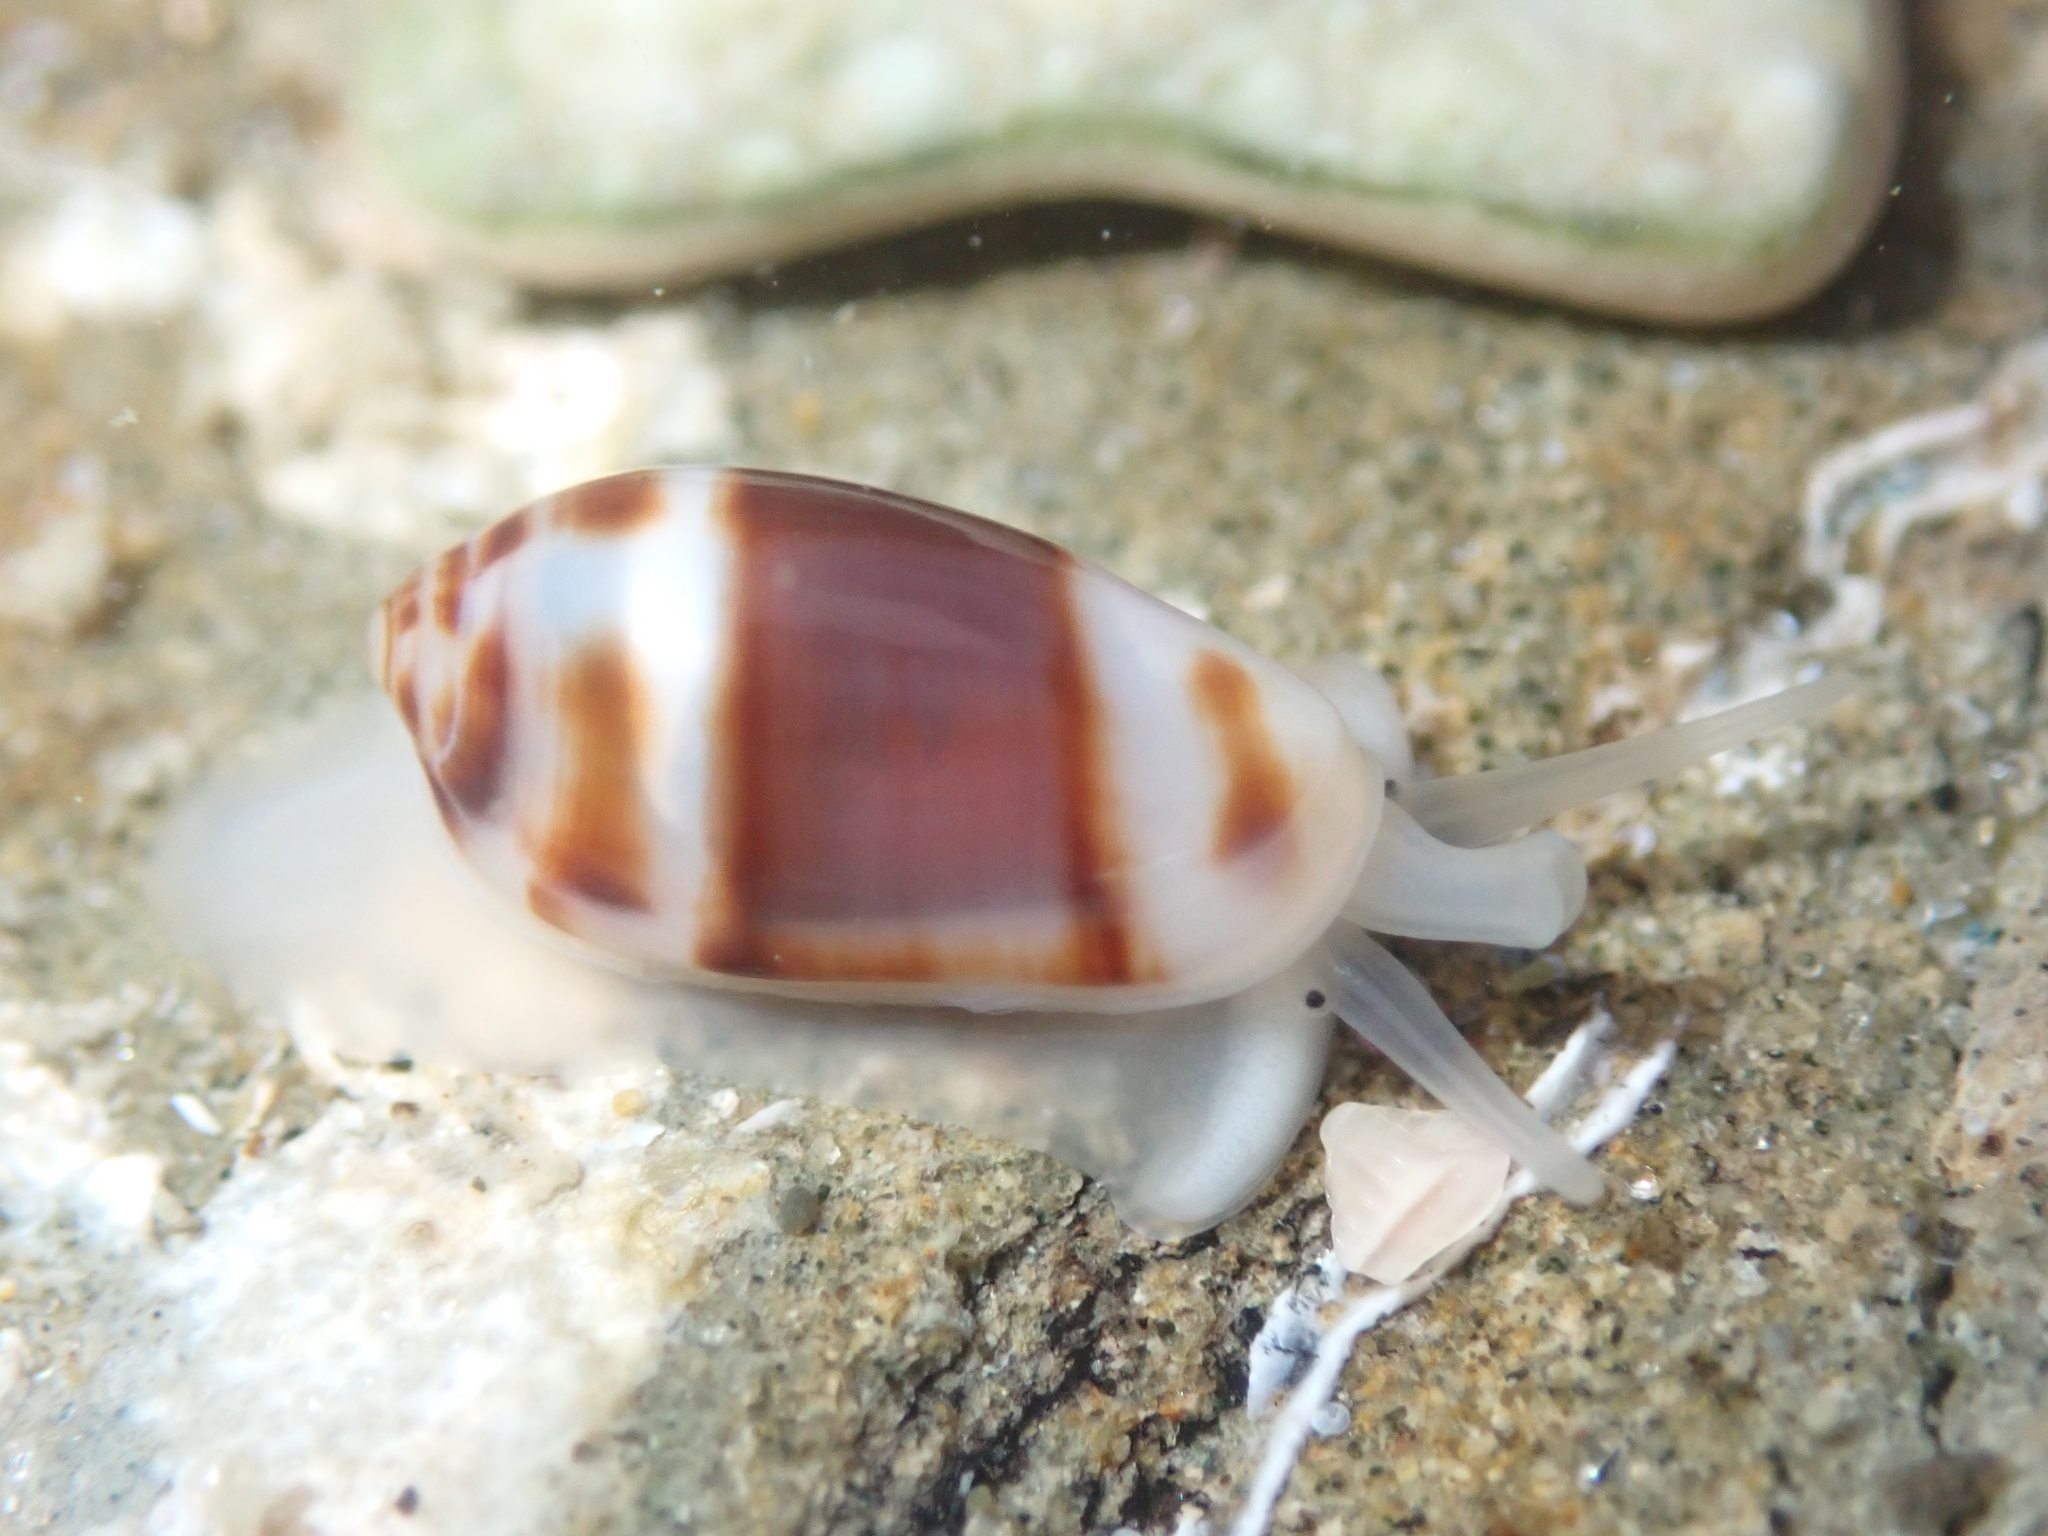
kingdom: Animalia
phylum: Mollusca
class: Gastropoda
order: Neogastropoda
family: Marginellidae
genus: Serrata
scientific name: Serrata fasciata
